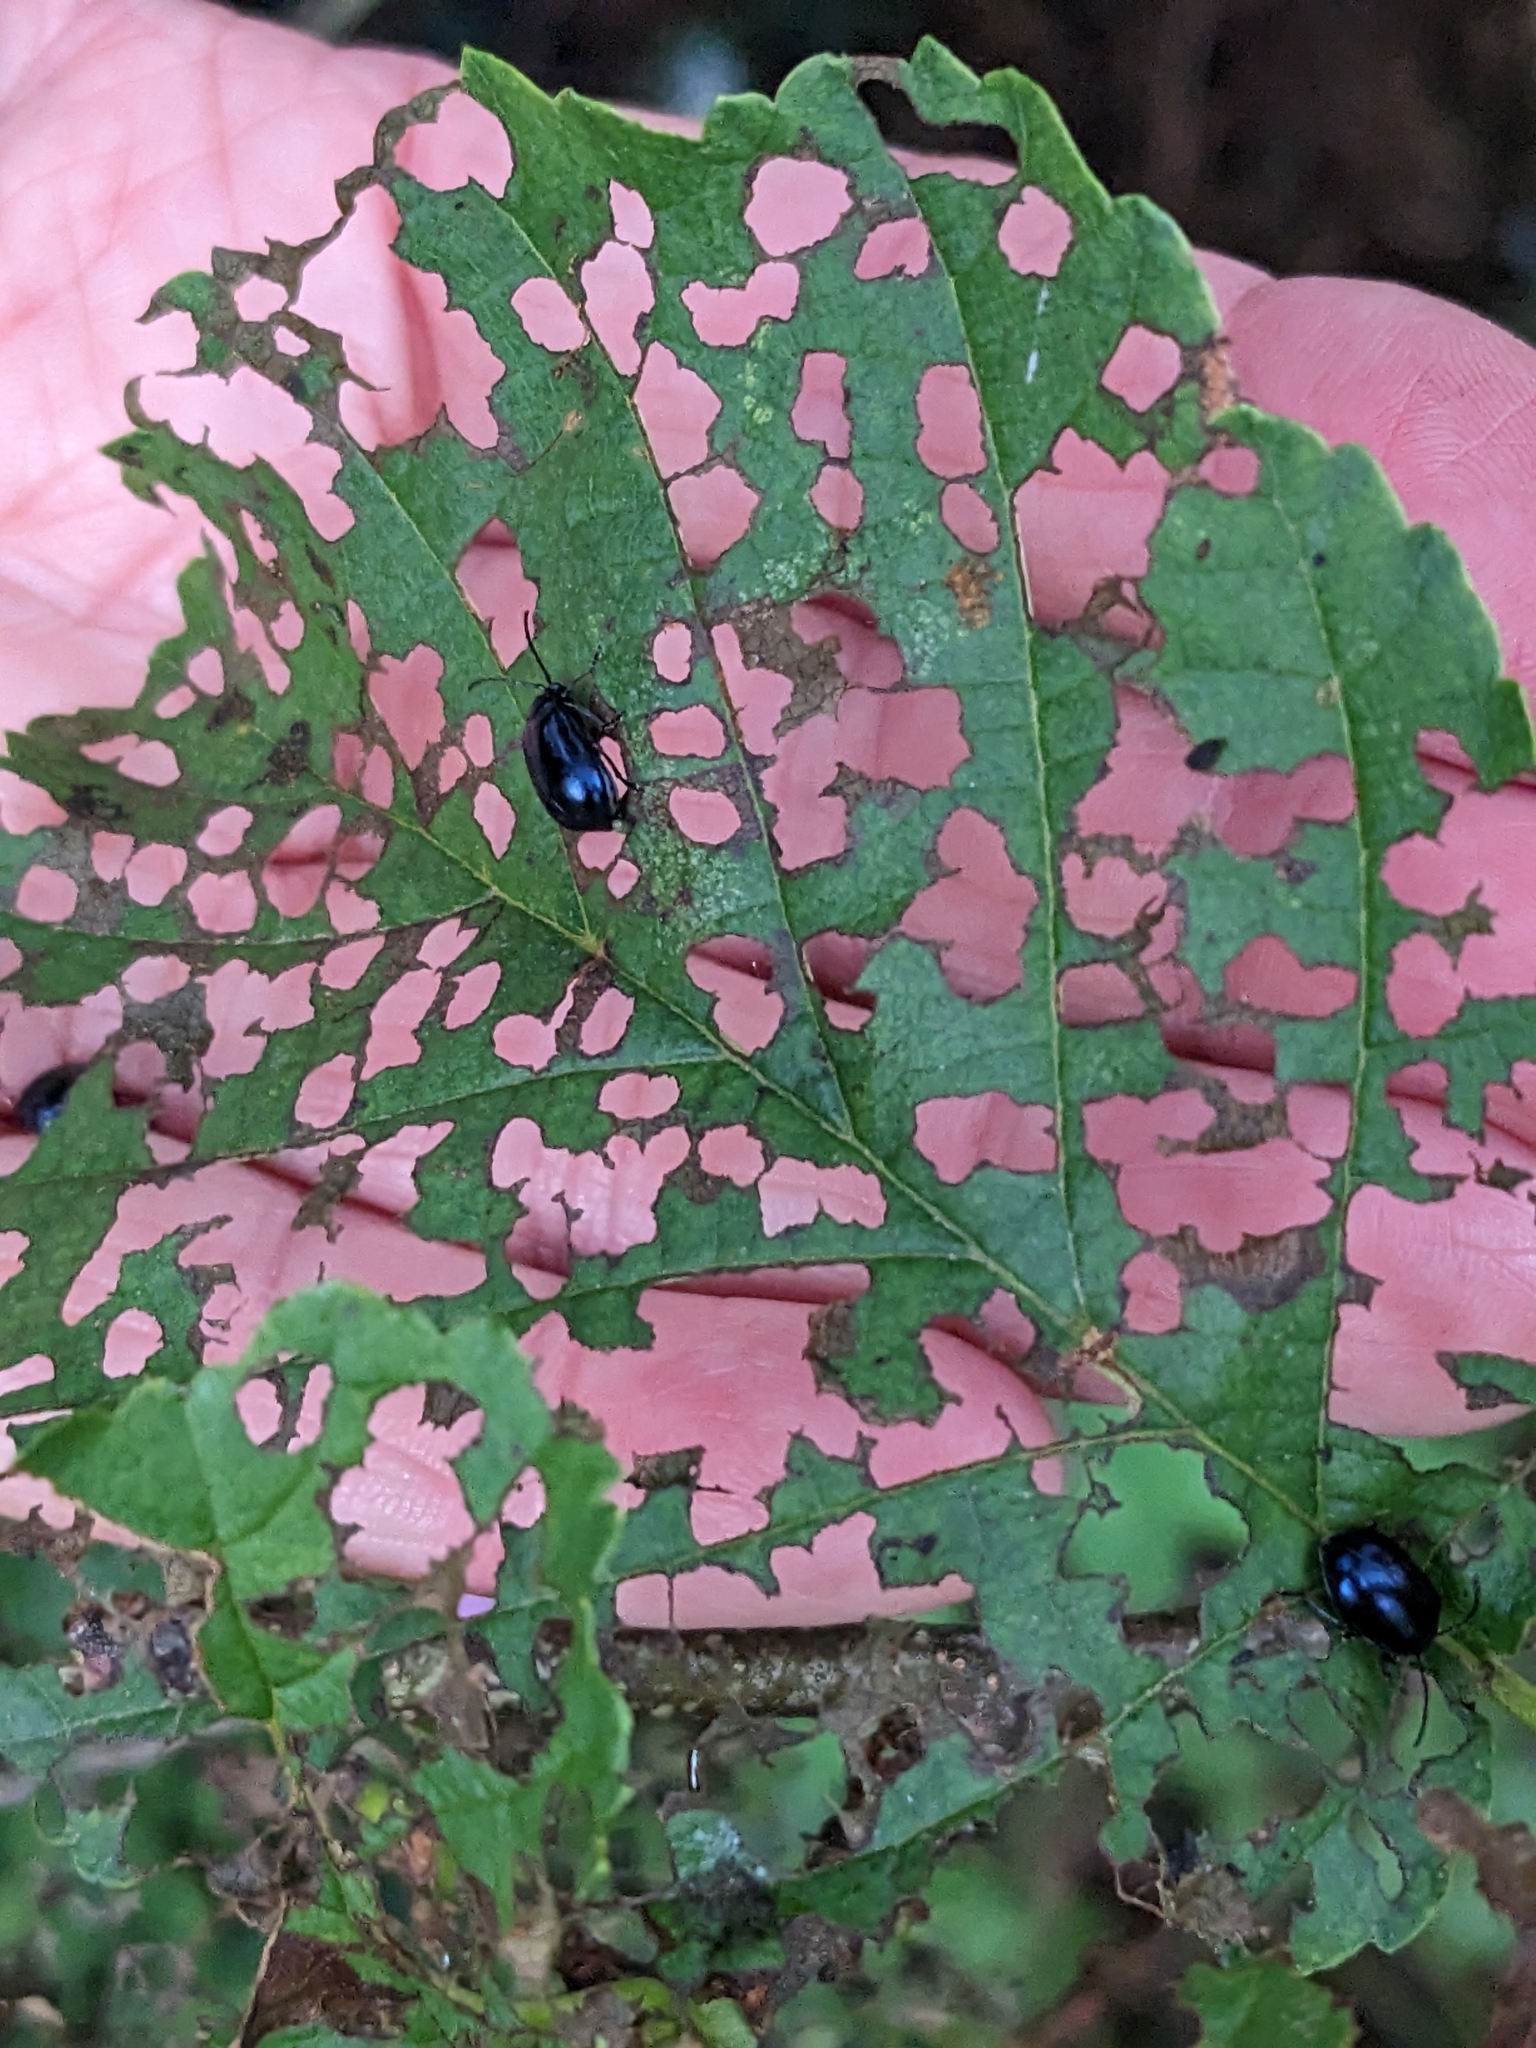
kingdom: Animalia
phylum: Arthropoda
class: Insecta
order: Coleoptera
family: Chrysomelidae
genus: Agelastica
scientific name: Agelastica alni
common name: Alder leaf beetle
